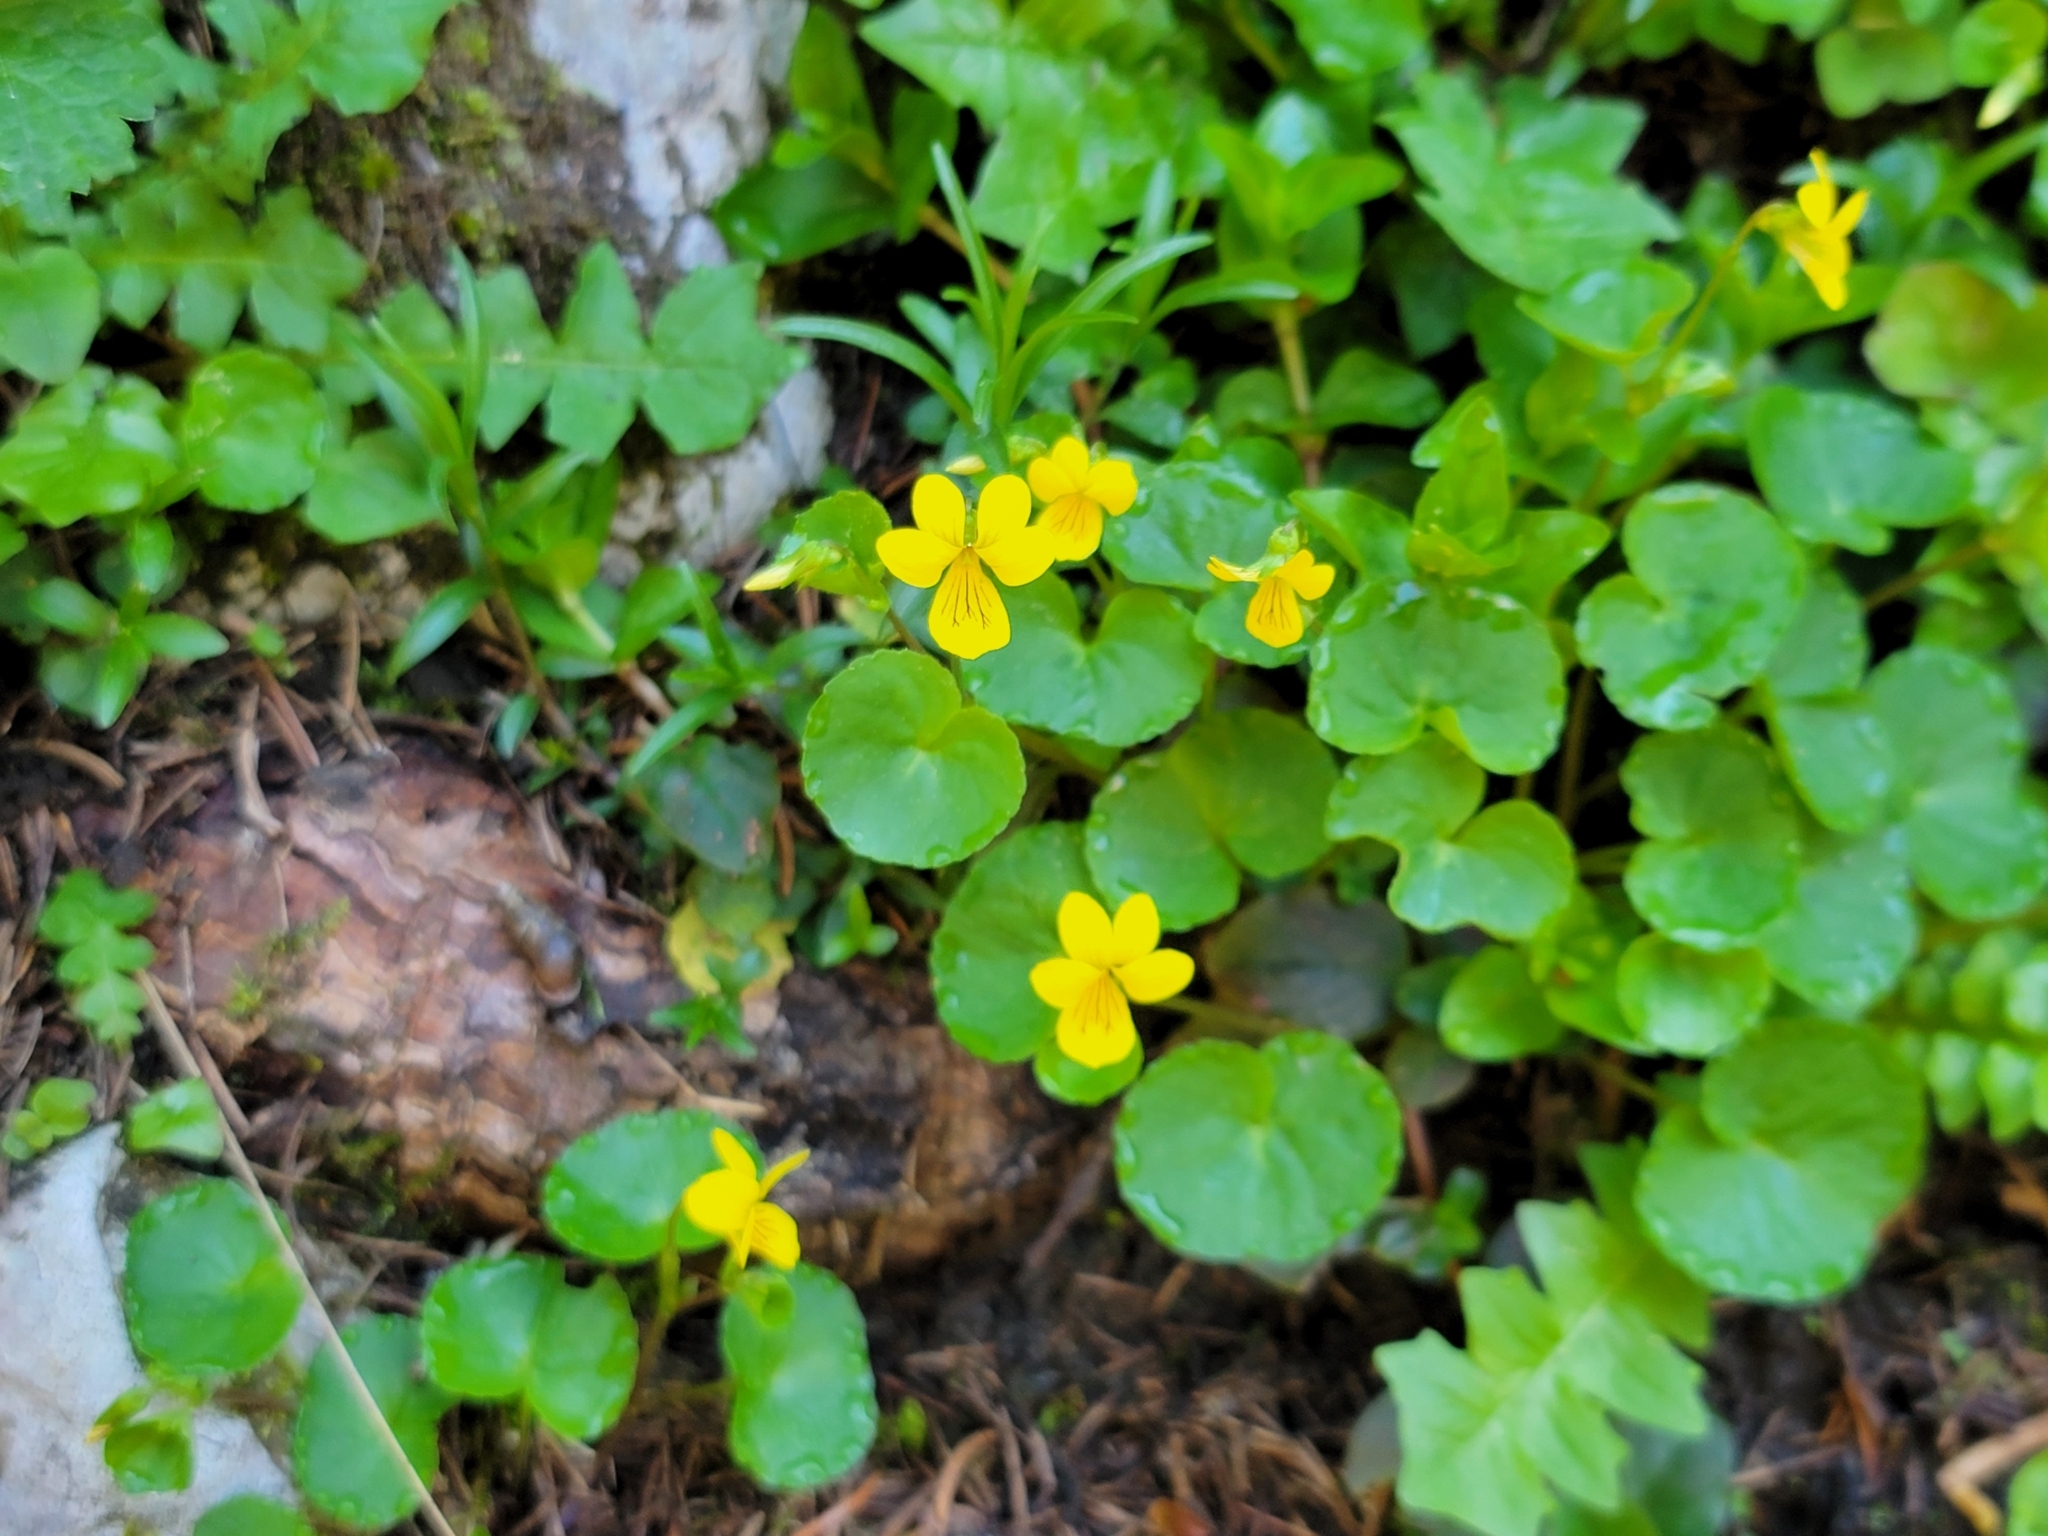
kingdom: Plantae
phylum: Tracheophyta
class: Magnoliopsida
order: Malpighiales
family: Violaceae
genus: Viola
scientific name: Viola biflora
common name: Alpine yellow violet
